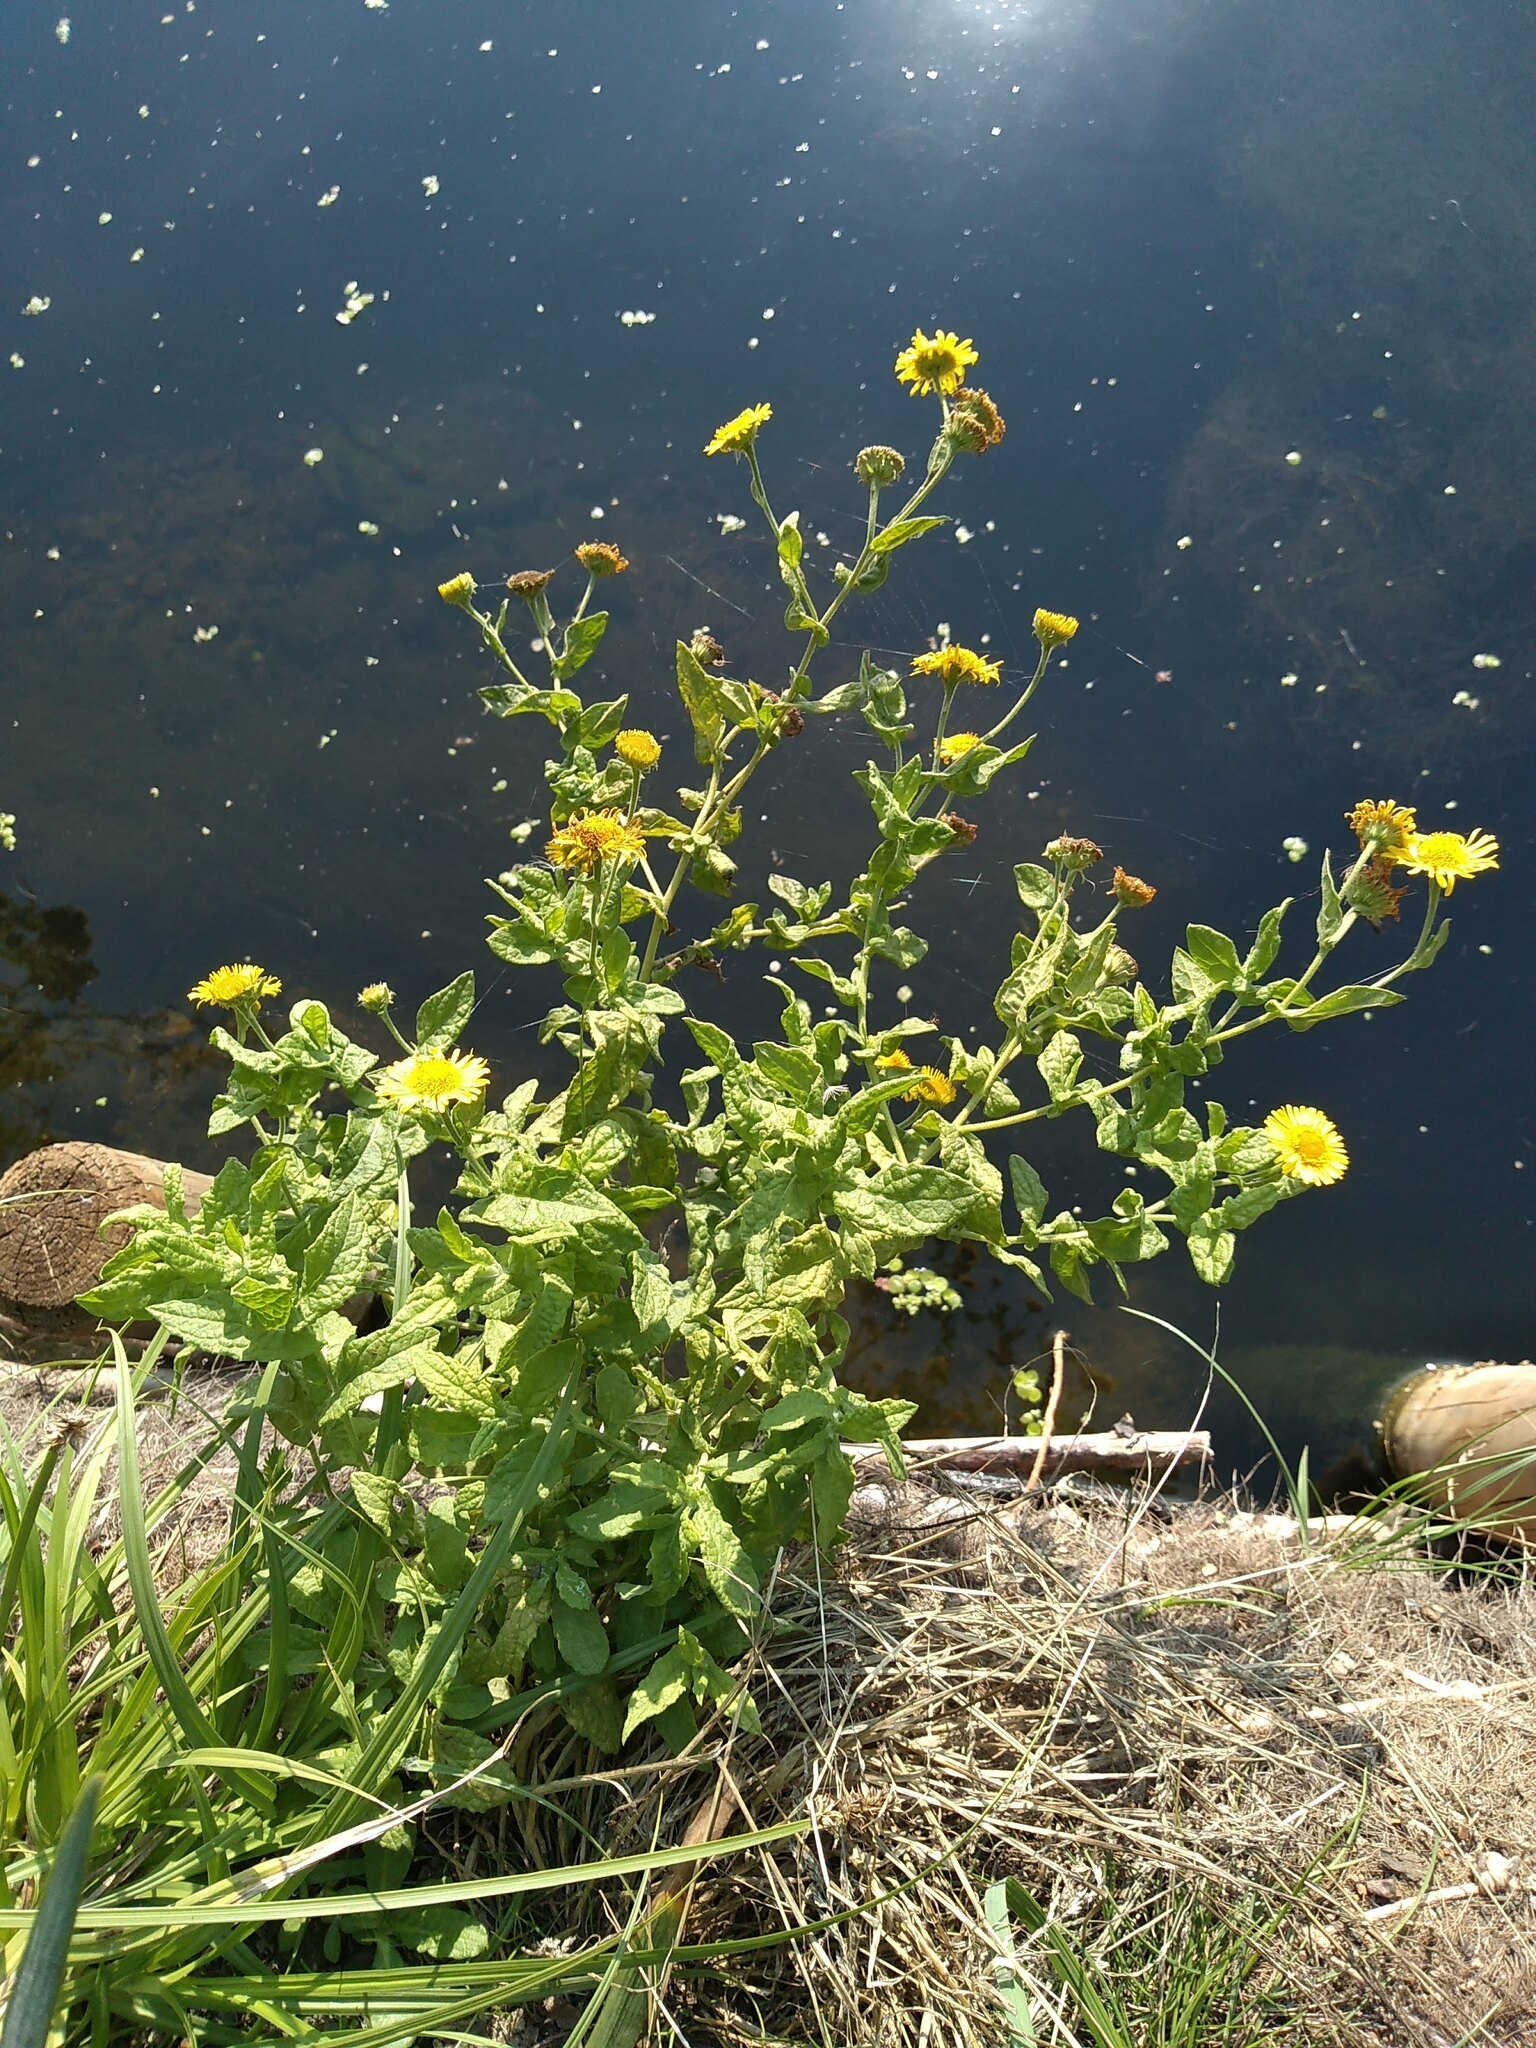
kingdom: Plantae
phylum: Tracheophyta
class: Magnoliopsida
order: Asterales
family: Asteraceae
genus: Pulicaria
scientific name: Pulicaria dysenterica
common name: Common fleabane
